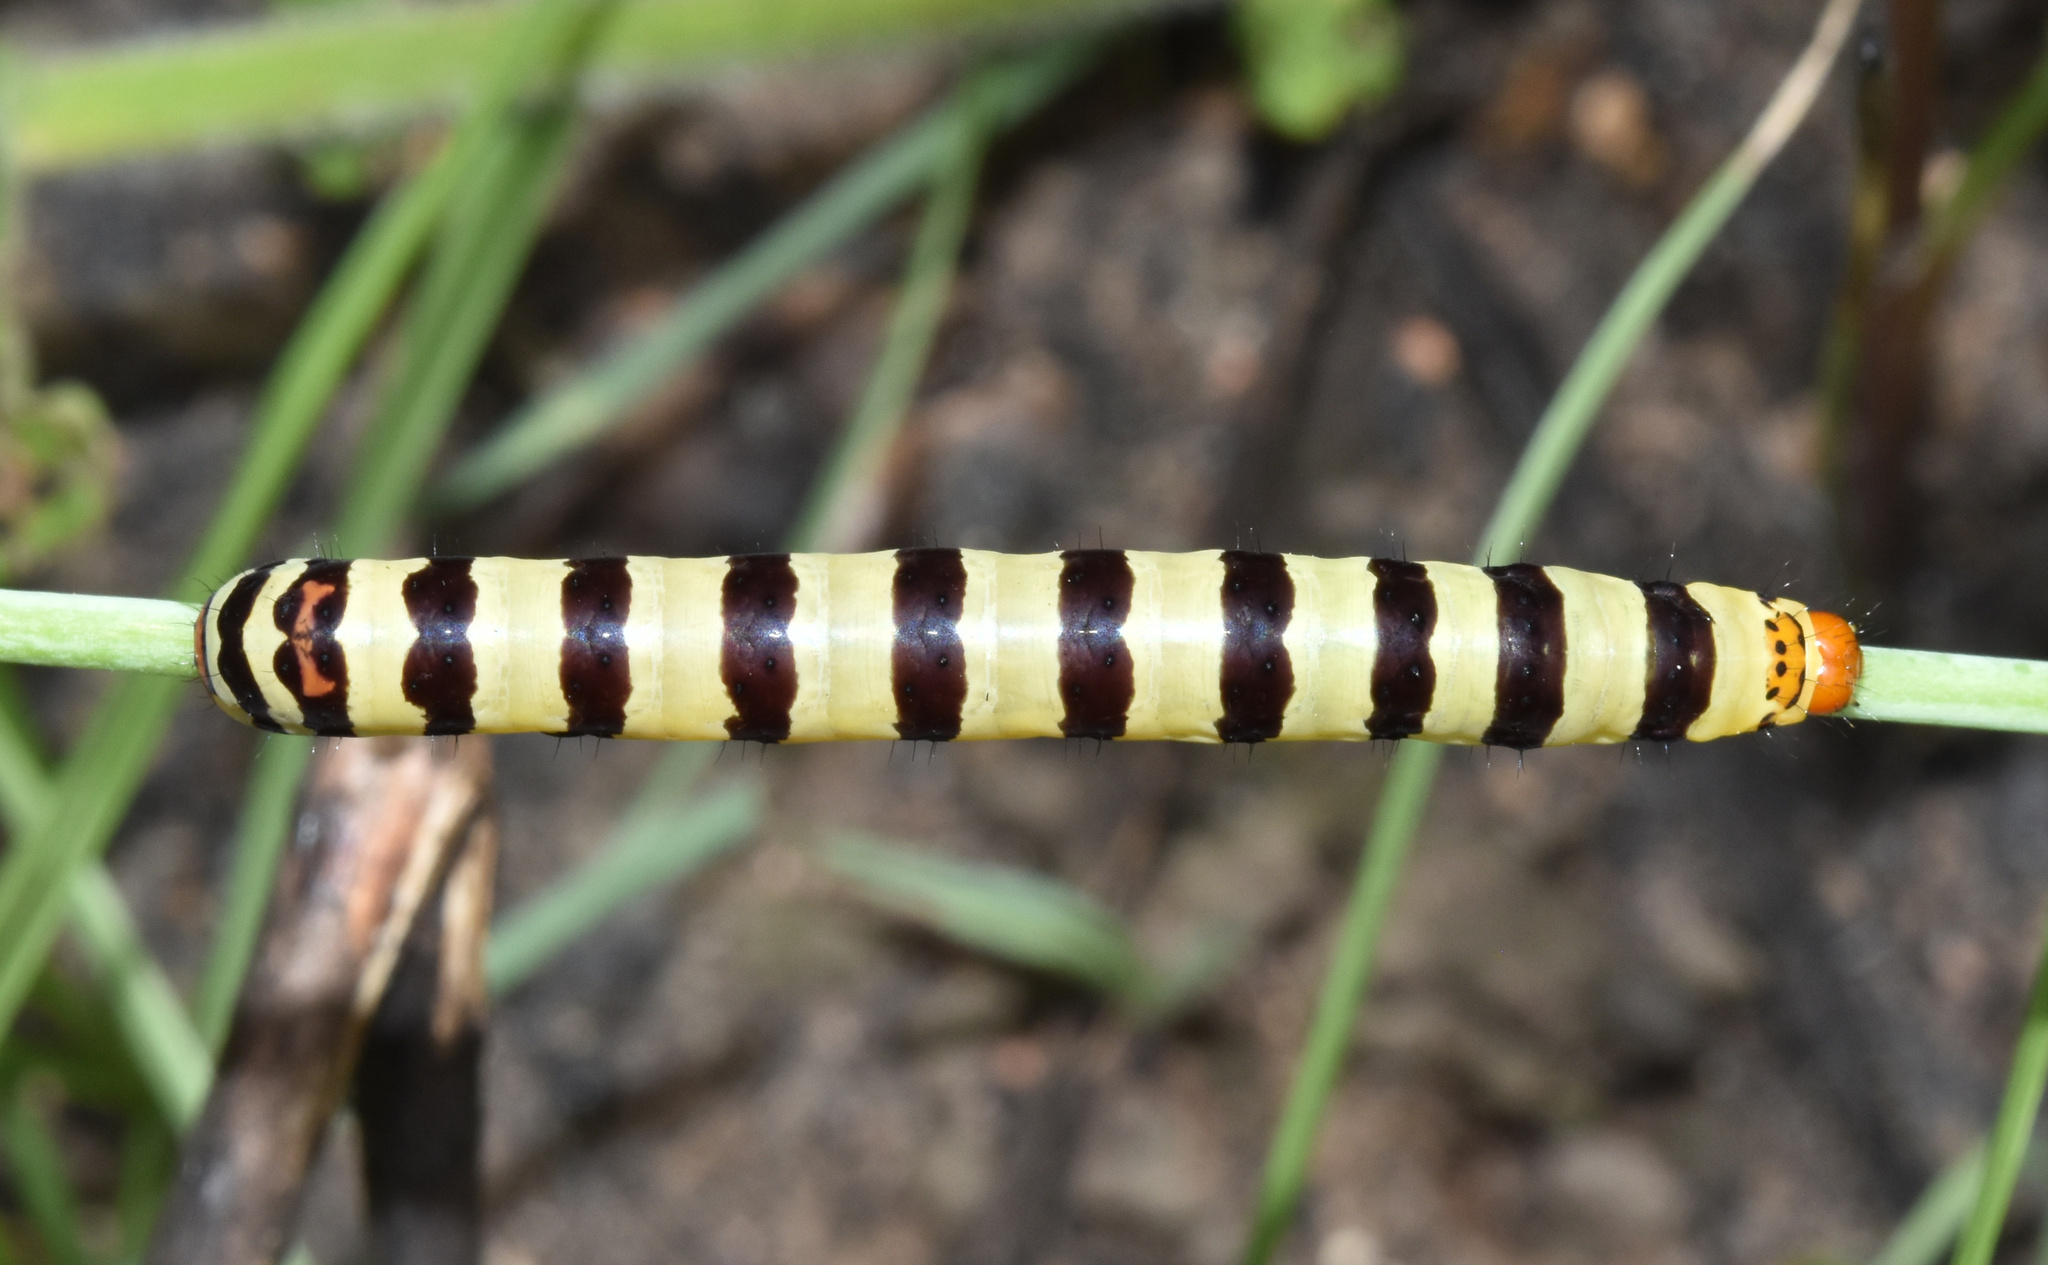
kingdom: Animalia
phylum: Arthropoda
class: Insecta
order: Lepidoptera
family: Noctuidae
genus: Diaphone
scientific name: Diaphone eumela
